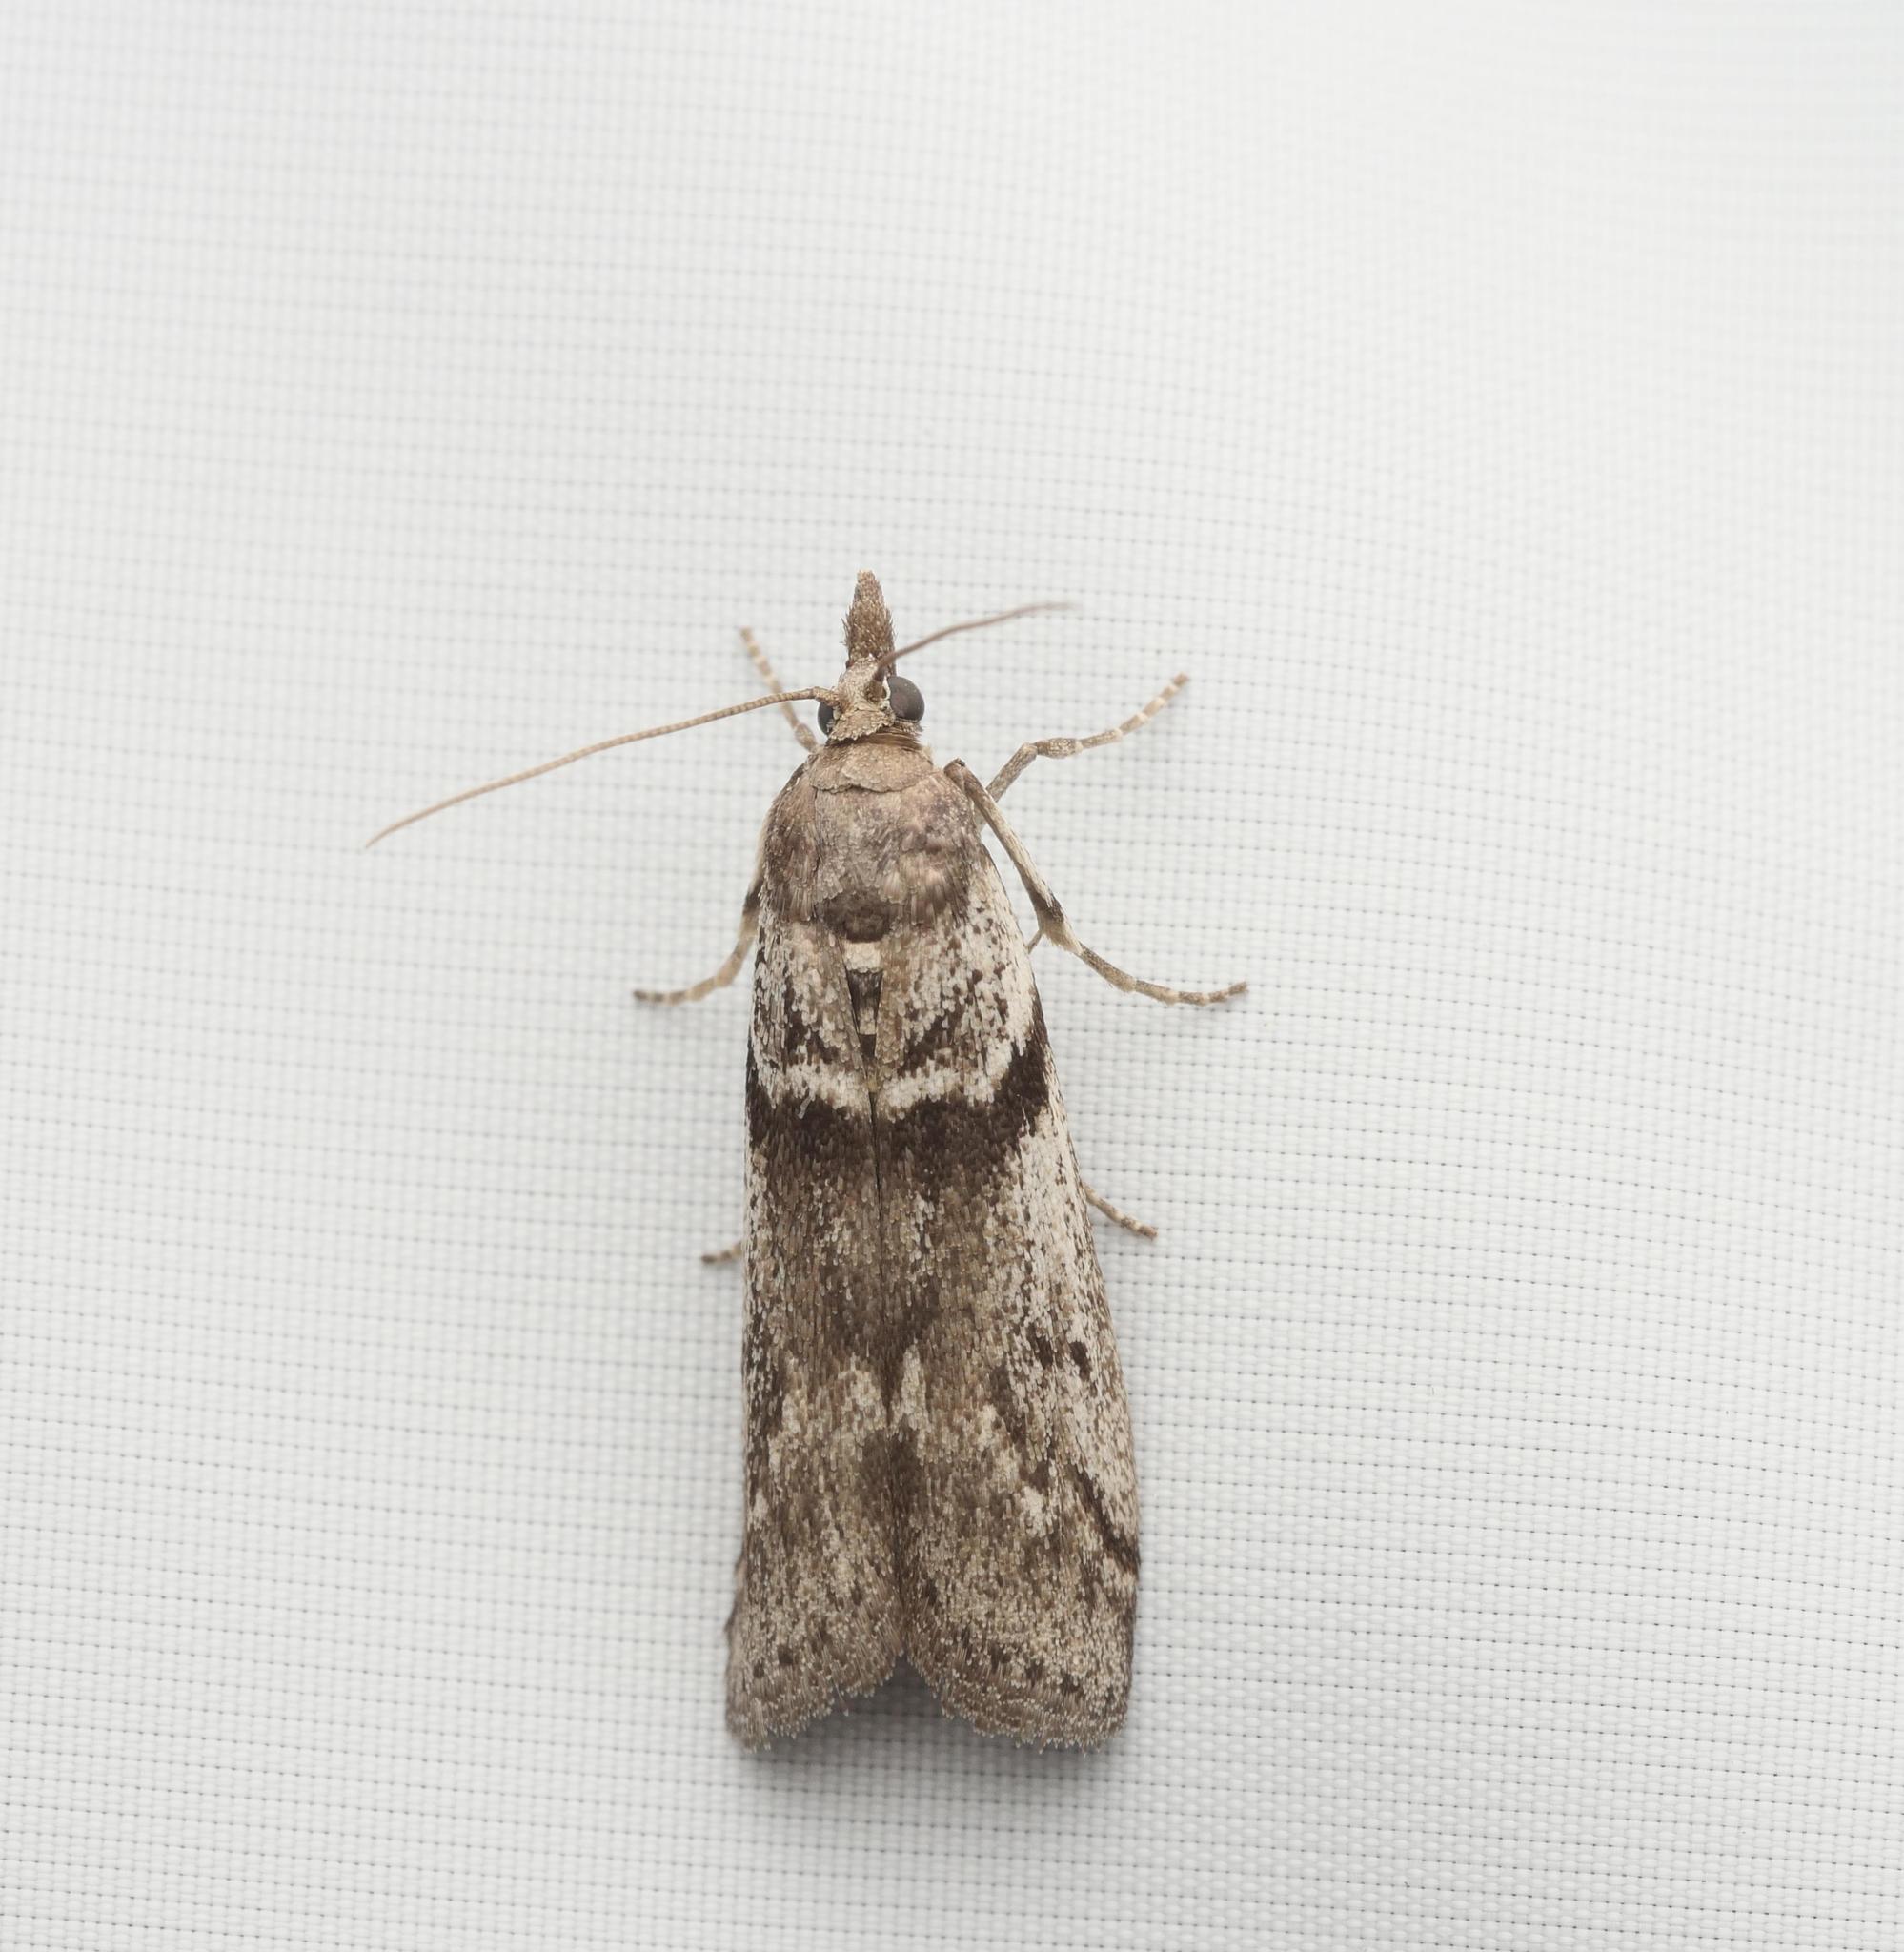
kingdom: Animalia
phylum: Arthropoda
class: Insecta
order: Lepidoptera
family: Pyralidae
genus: Zophodia
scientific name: Zophodia convolutella
